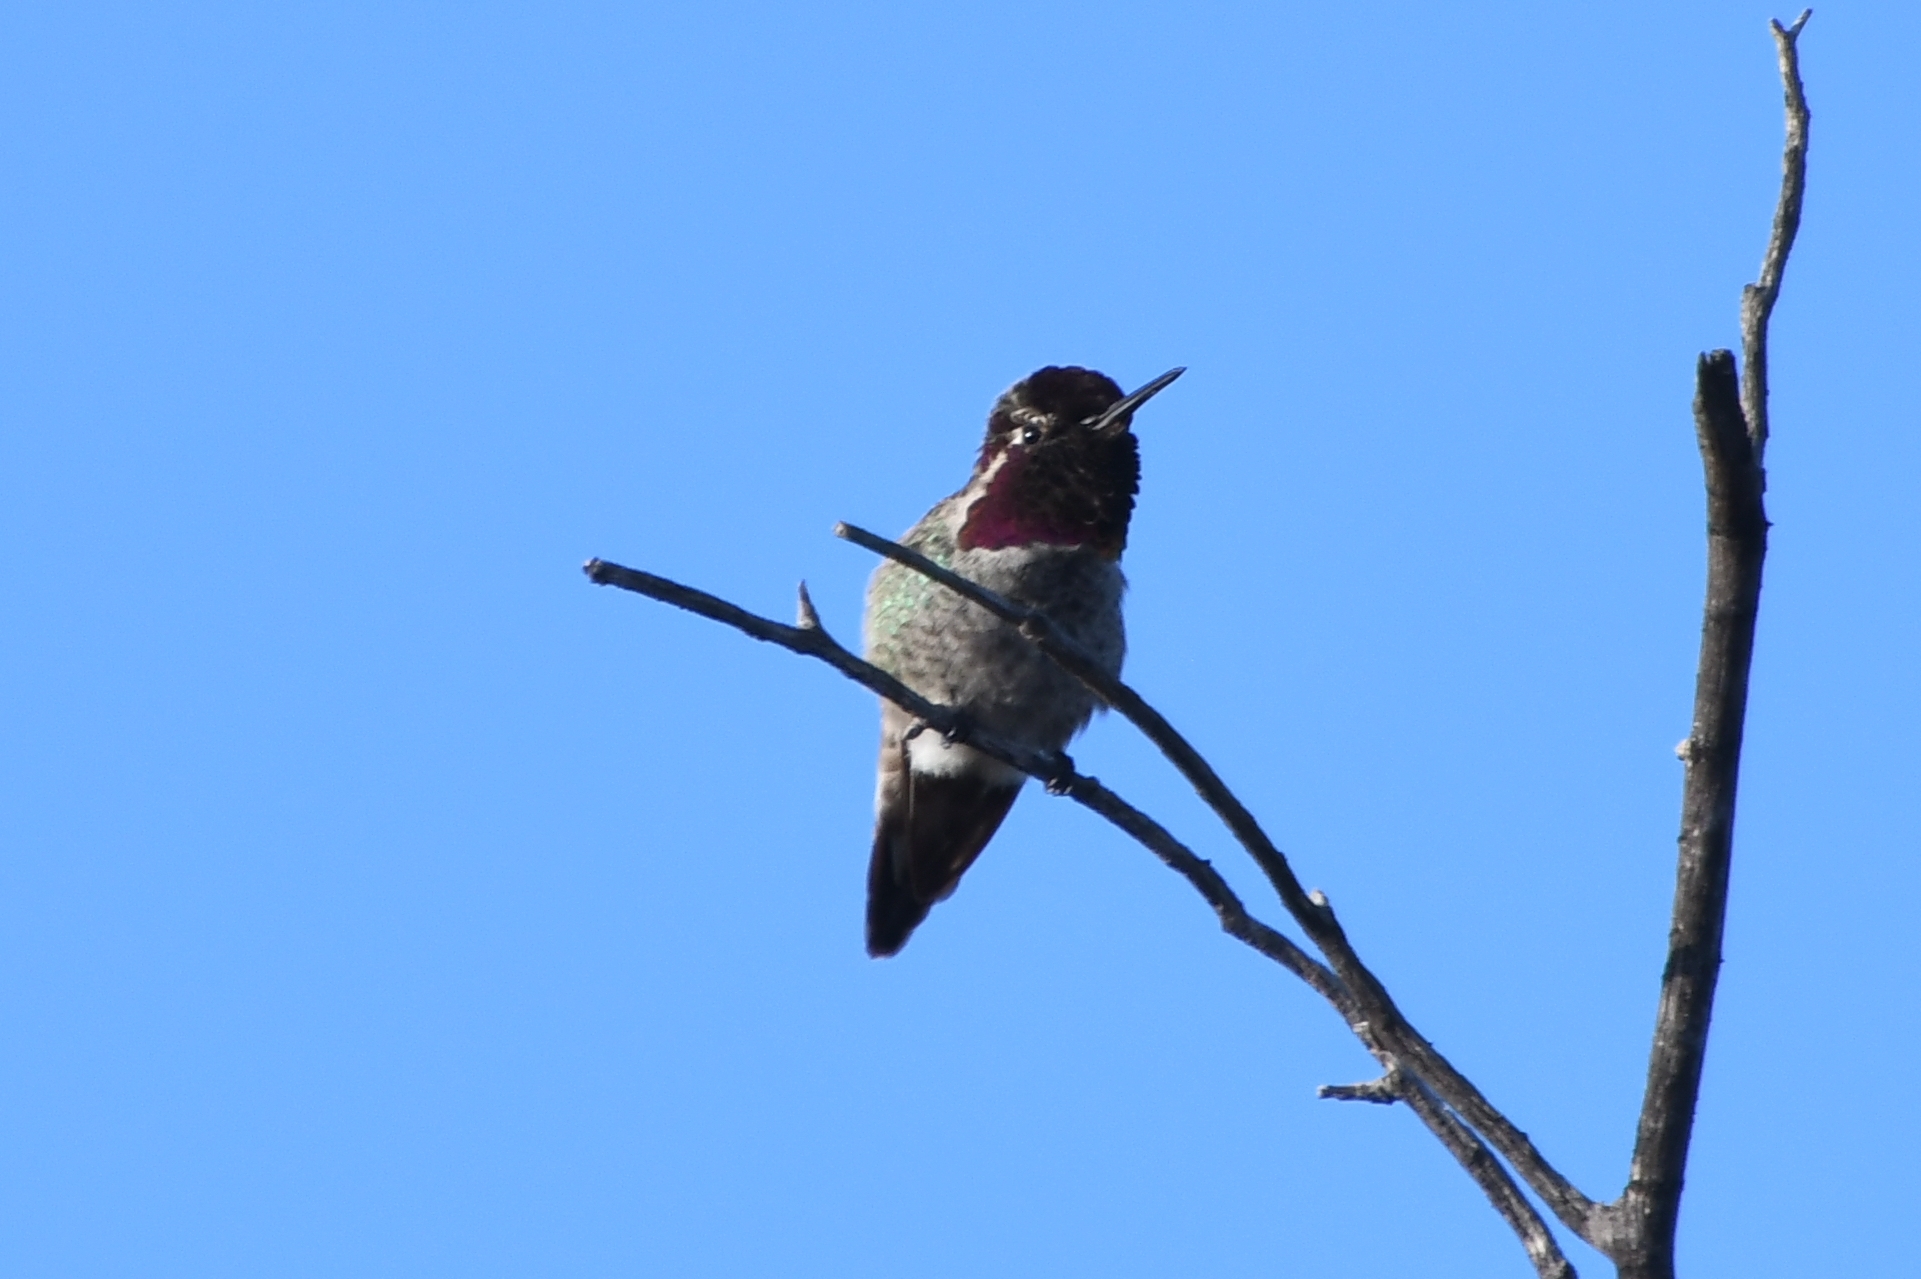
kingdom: Animalia
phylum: Chordata
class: Aves
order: Apodiformes
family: Trochilidae
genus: Calypte
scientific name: Calypte anna
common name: Anna's hummingbird
